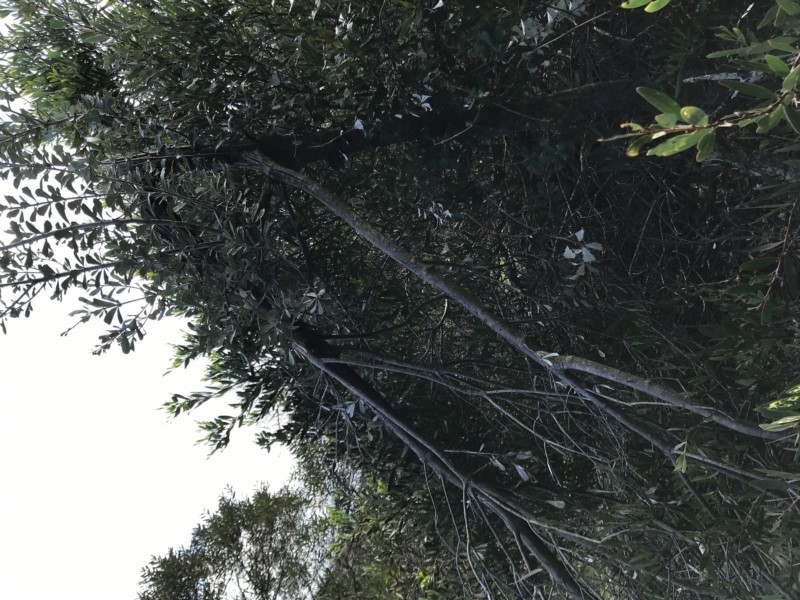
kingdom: Plantae
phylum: Tracheophyta
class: Magnoliopsida
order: Proteales
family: Proteaceae
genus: Banksia
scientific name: Banksia integrifolia
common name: White-honeysuckle
